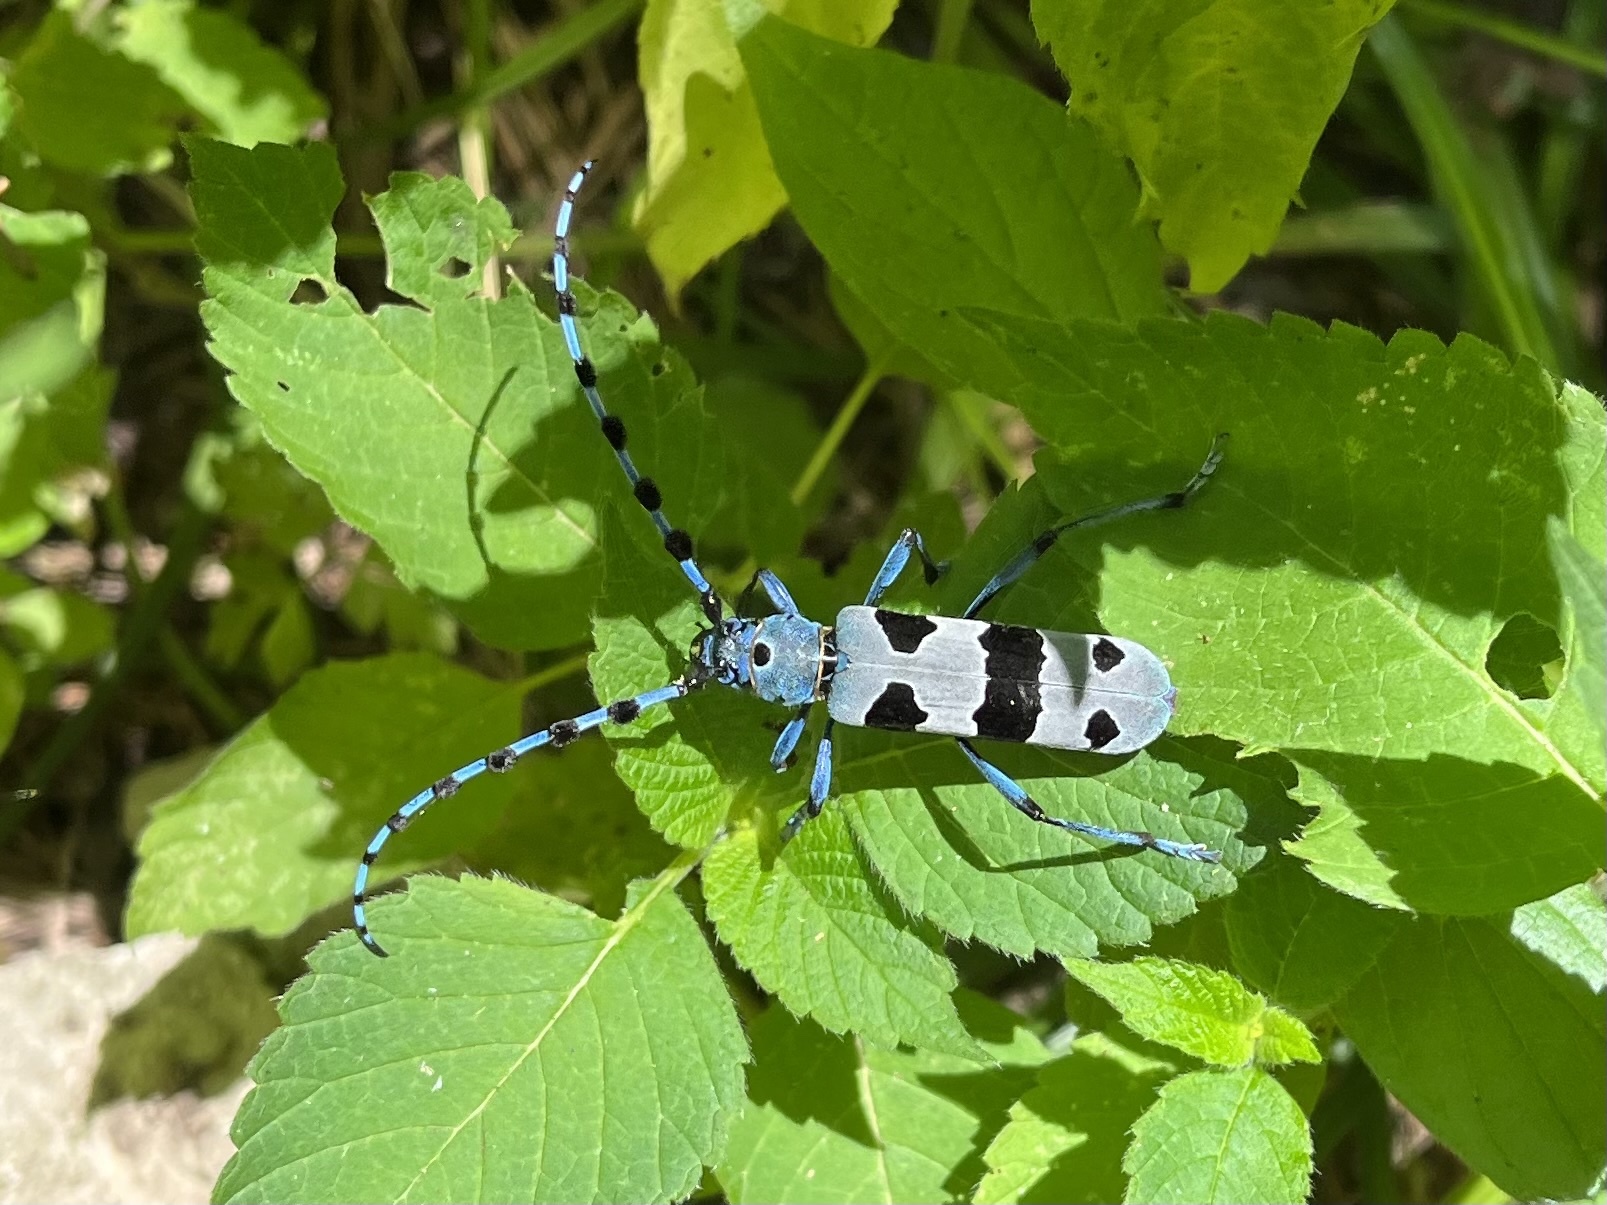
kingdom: Animalia
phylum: Arthropoda
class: Insecta
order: Coleoptera
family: Cerambycidae
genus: Rosalia
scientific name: Rosalia alpina
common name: Rosalia longicorn
